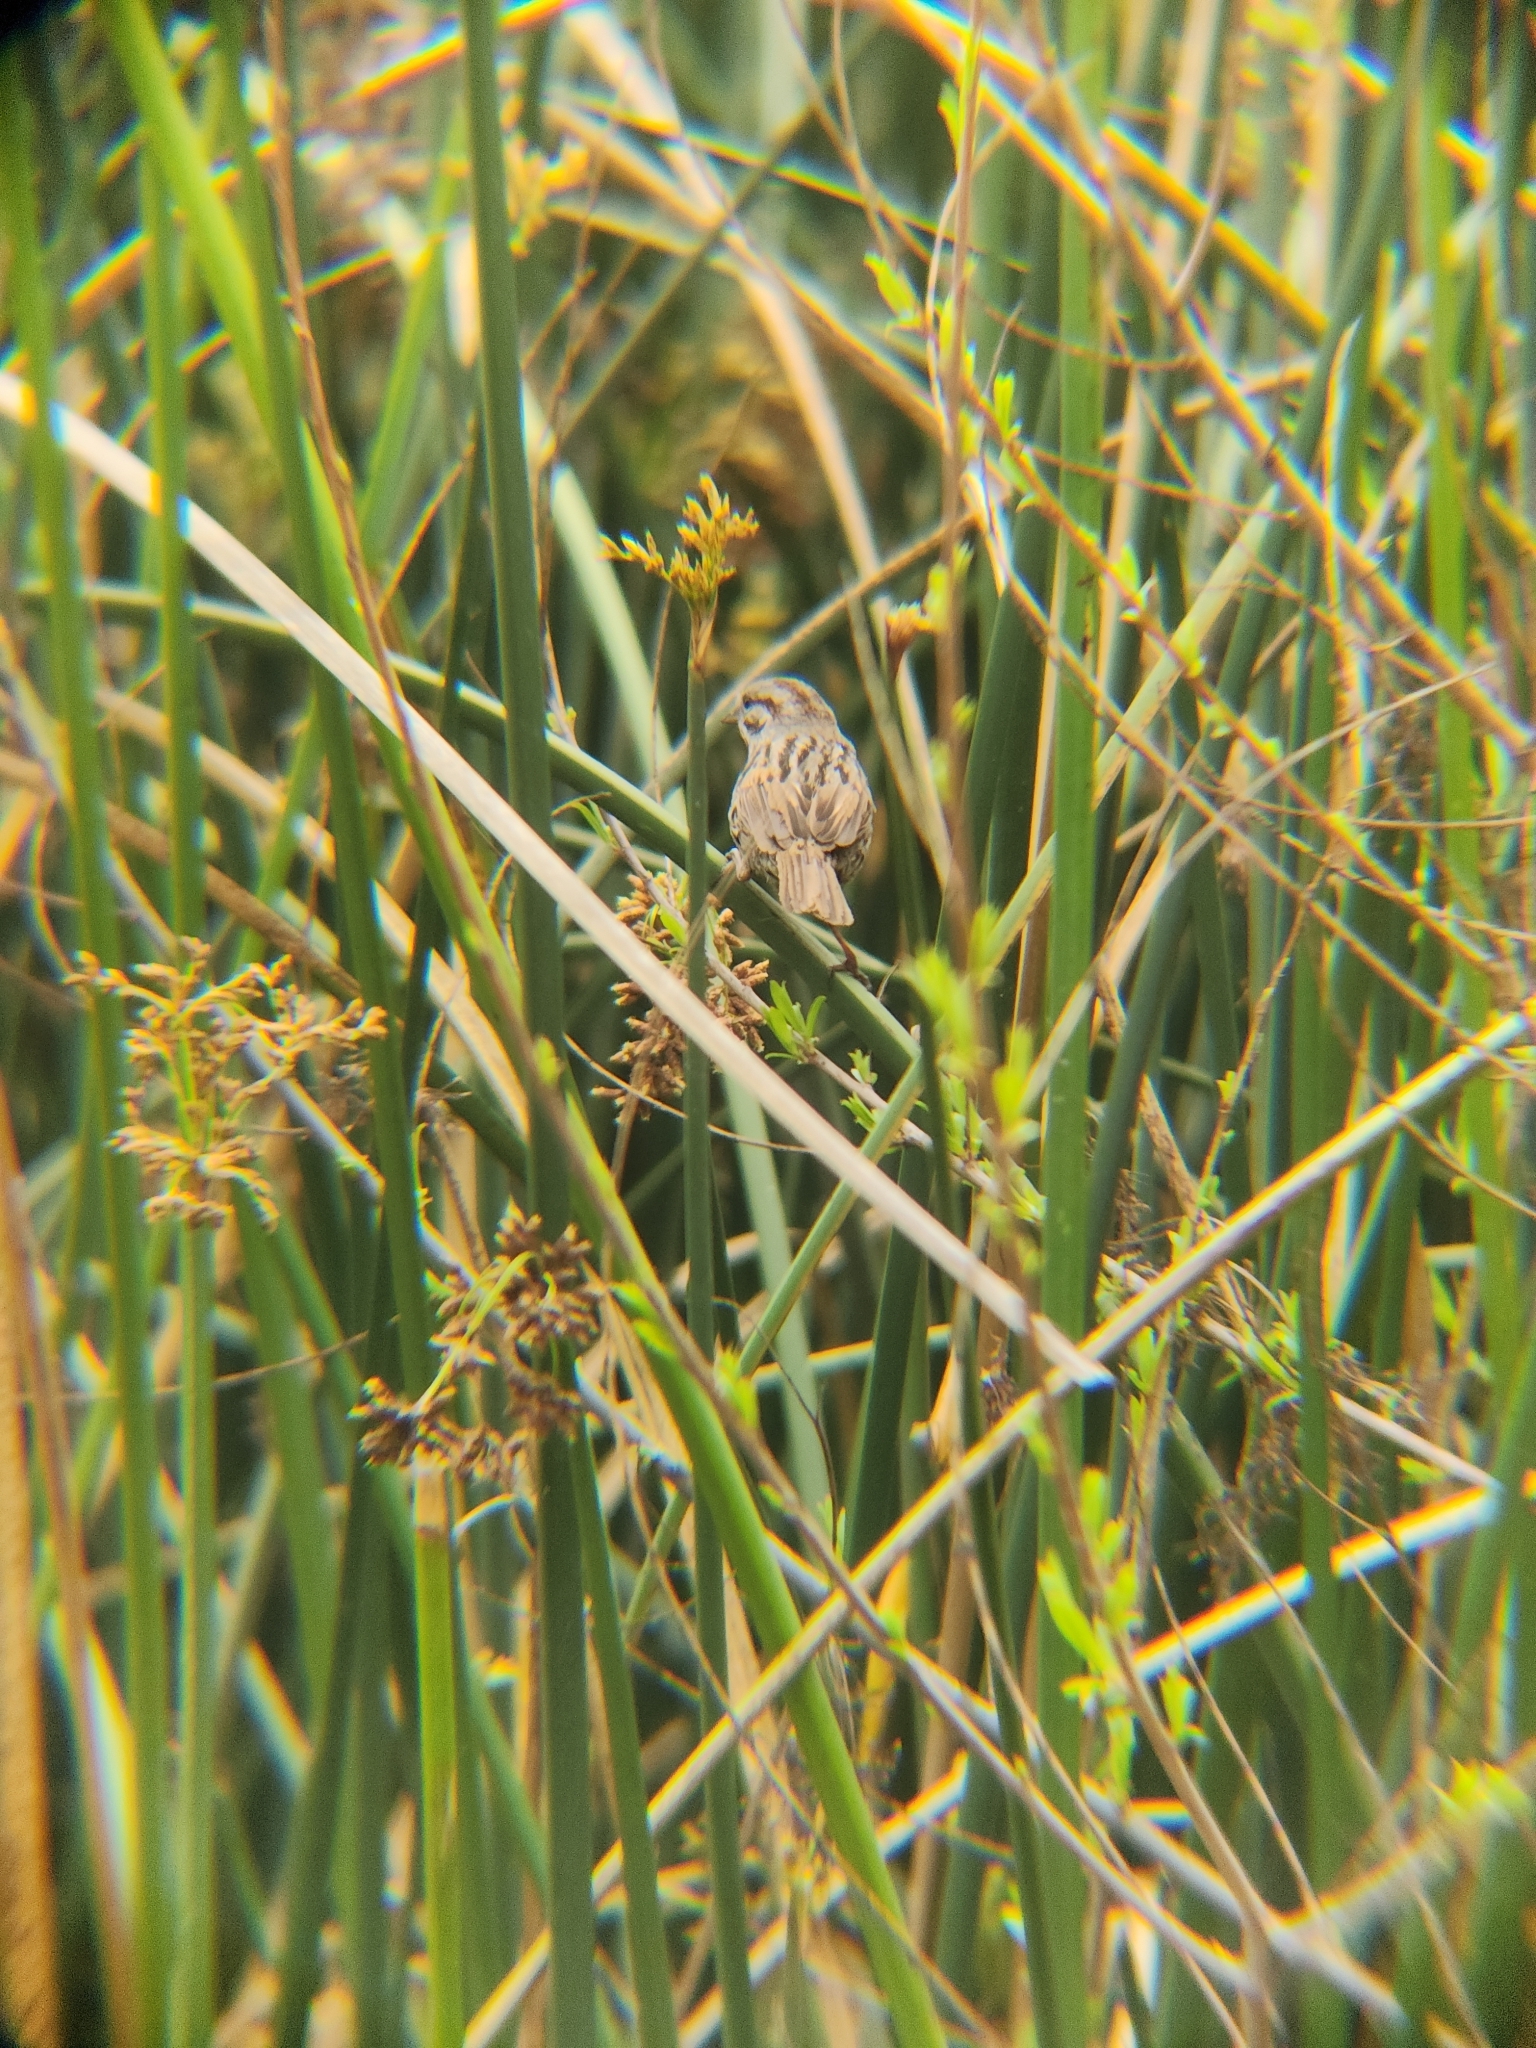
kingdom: Animalia
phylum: Chordata
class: Aves
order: Passeriformes
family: Passerellidae
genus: Melospiza
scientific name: Melospiza melodia
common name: Song sparrow
